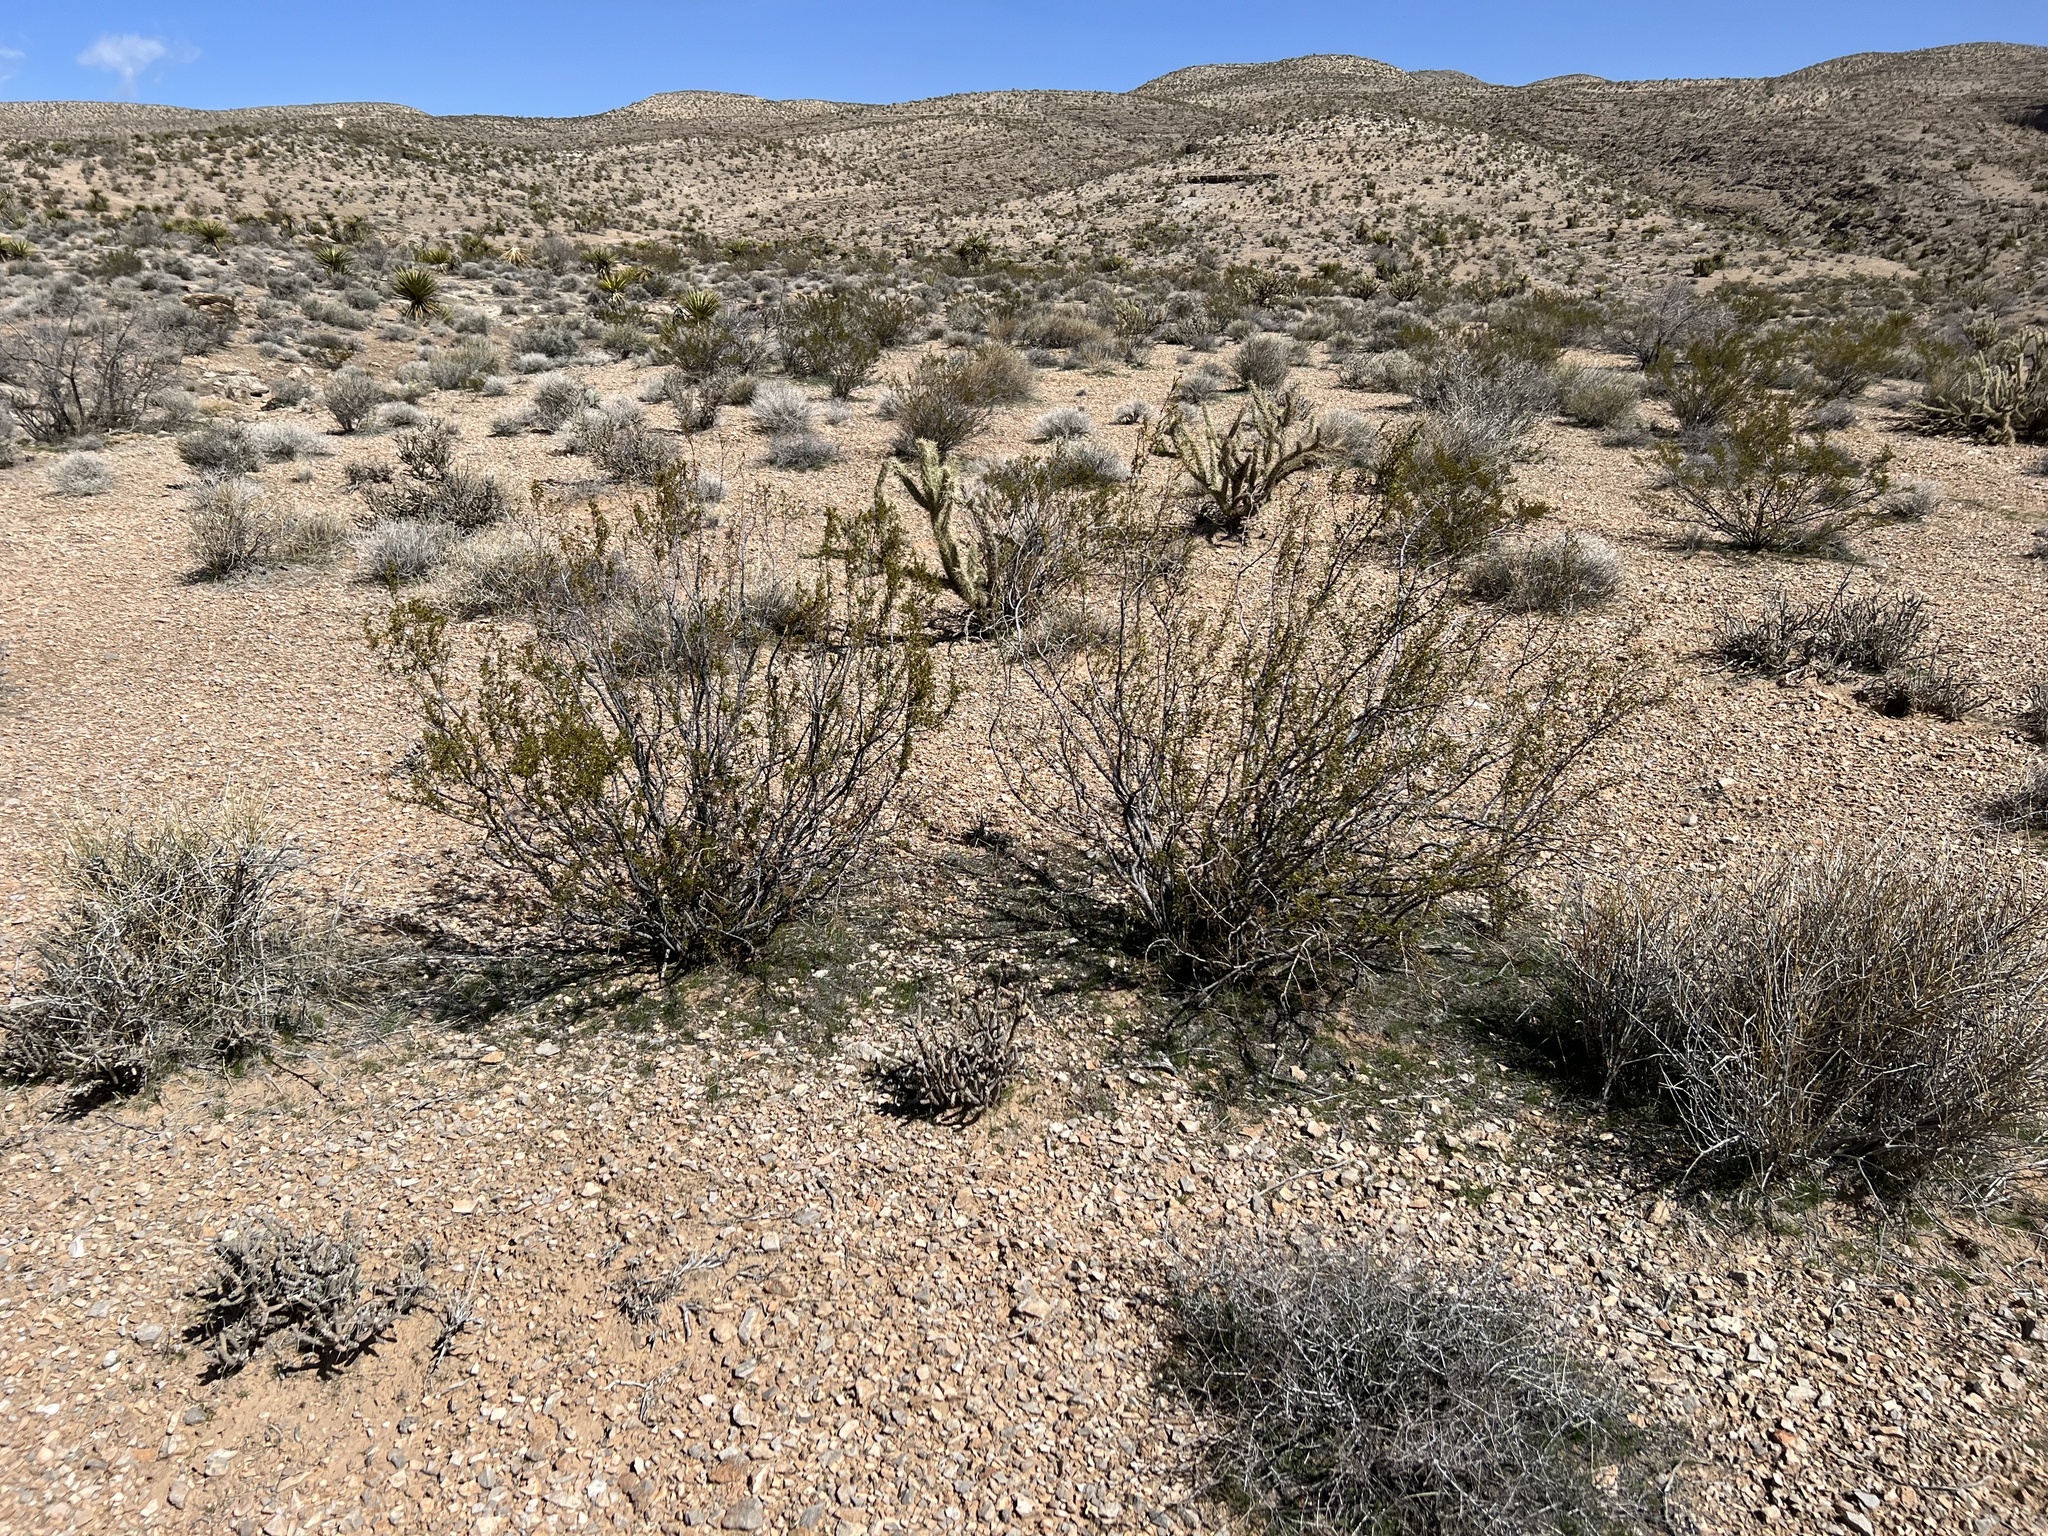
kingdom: Plantae
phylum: Tracheophyta
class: Magnoliopsida
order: Zygophyllales
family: Zygophyllaceae
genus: Larrea
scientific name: Larrea tridentata
